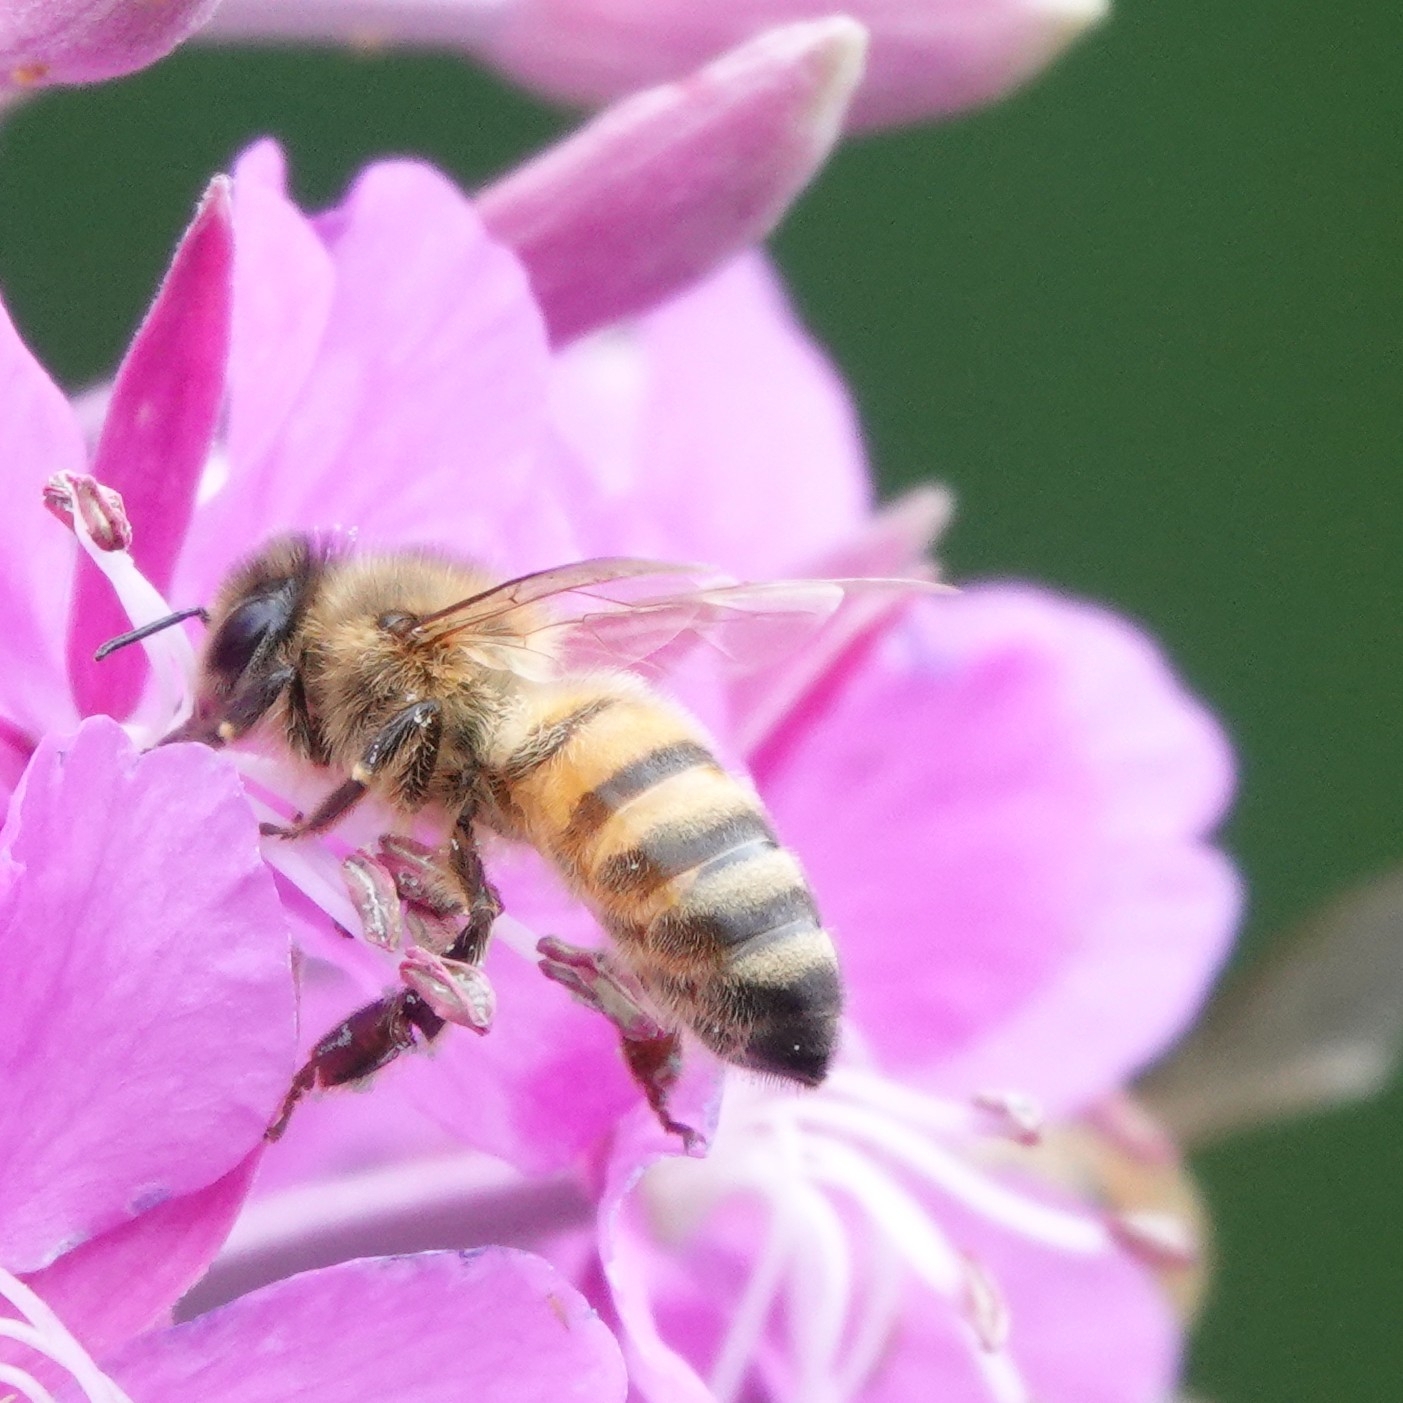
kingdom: Animalia
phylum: Arthropoda
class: Insecta
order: Hymenoptera
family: Apidae
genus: Apis
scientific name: Apis mellifera
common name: Honey bee
